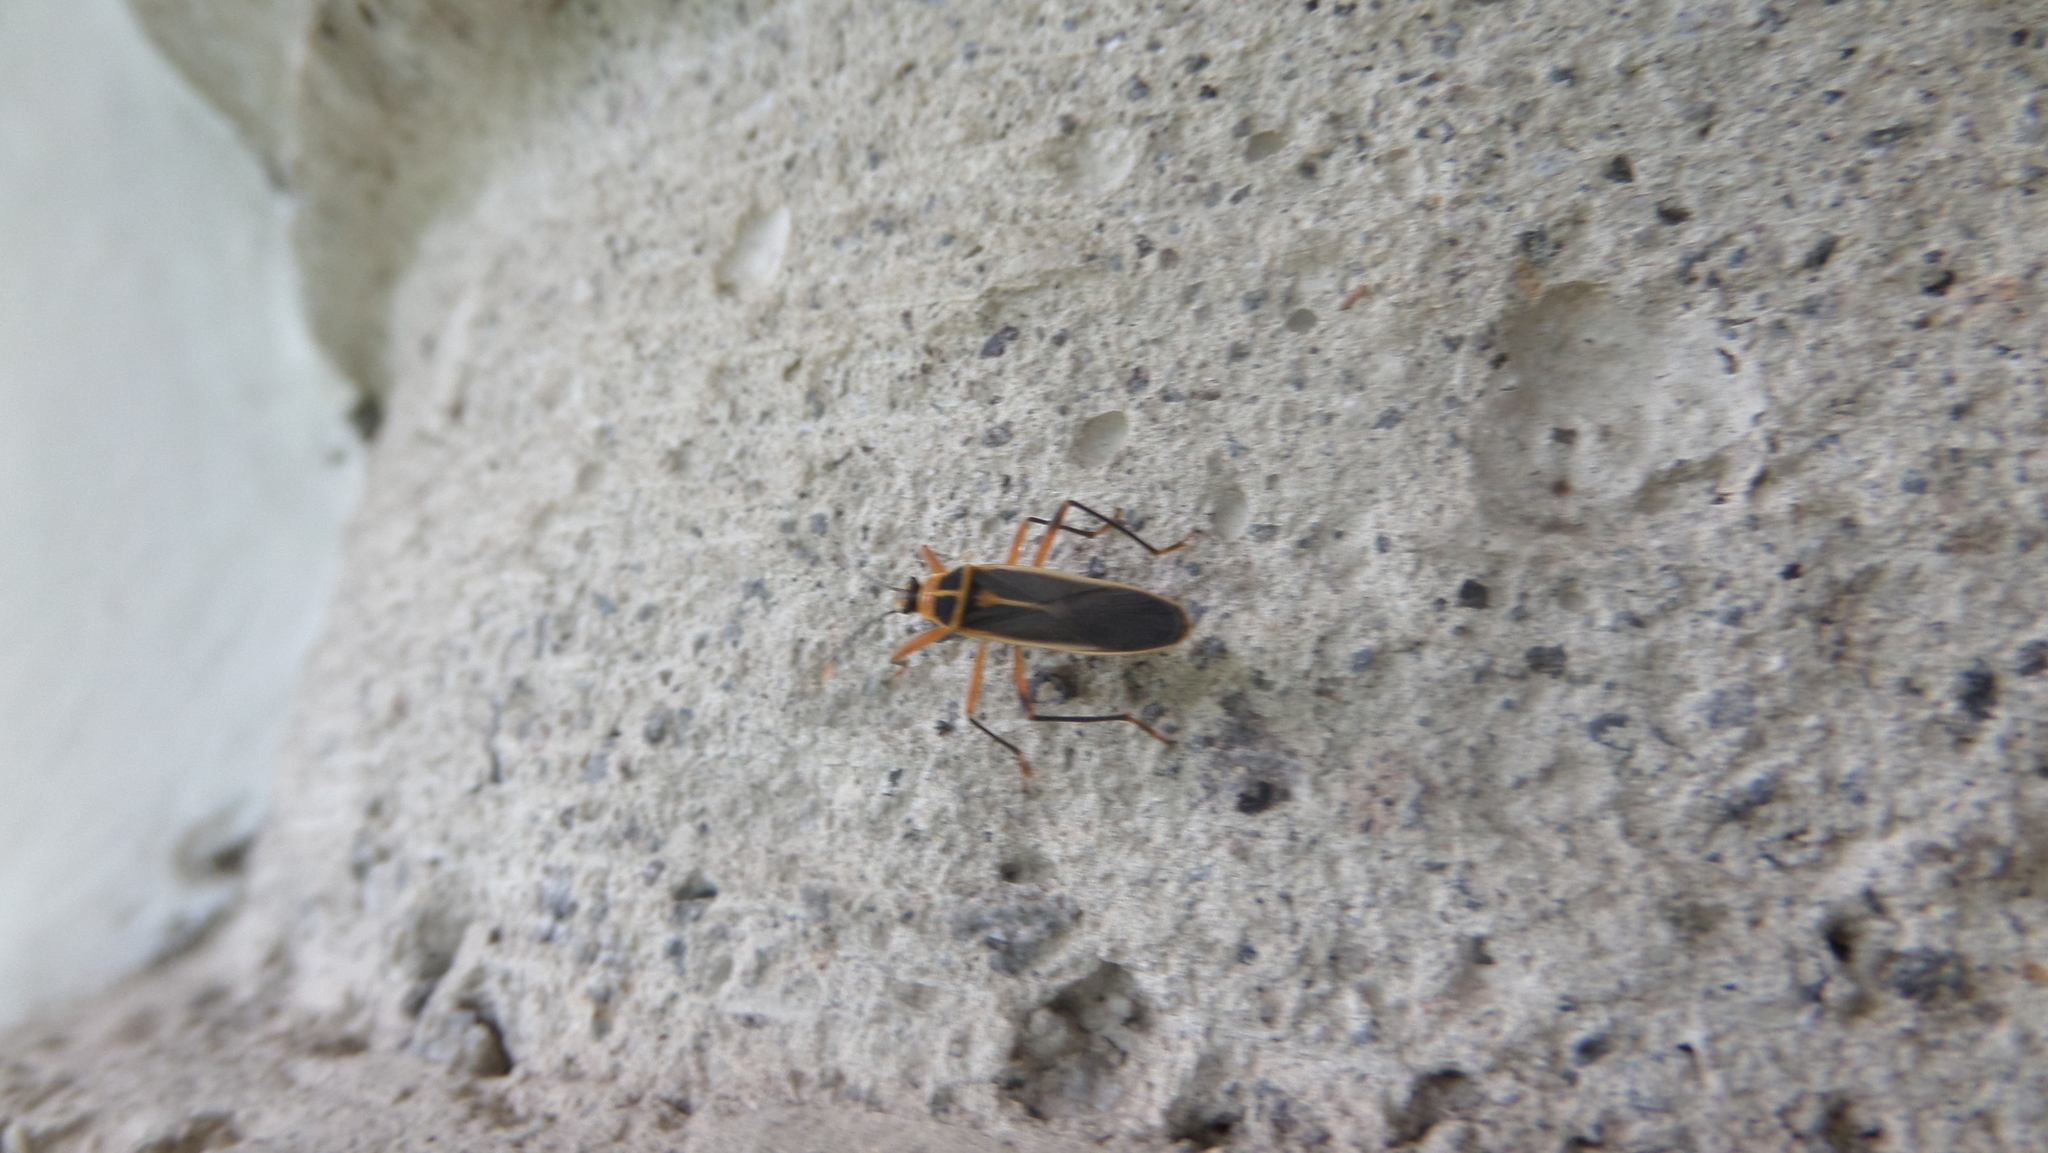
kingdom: Animalia
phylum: Arthropoda
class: Insecta
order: Hemiptera
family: Largidae
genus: Stenomacra
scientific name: Stenomacra marginella
